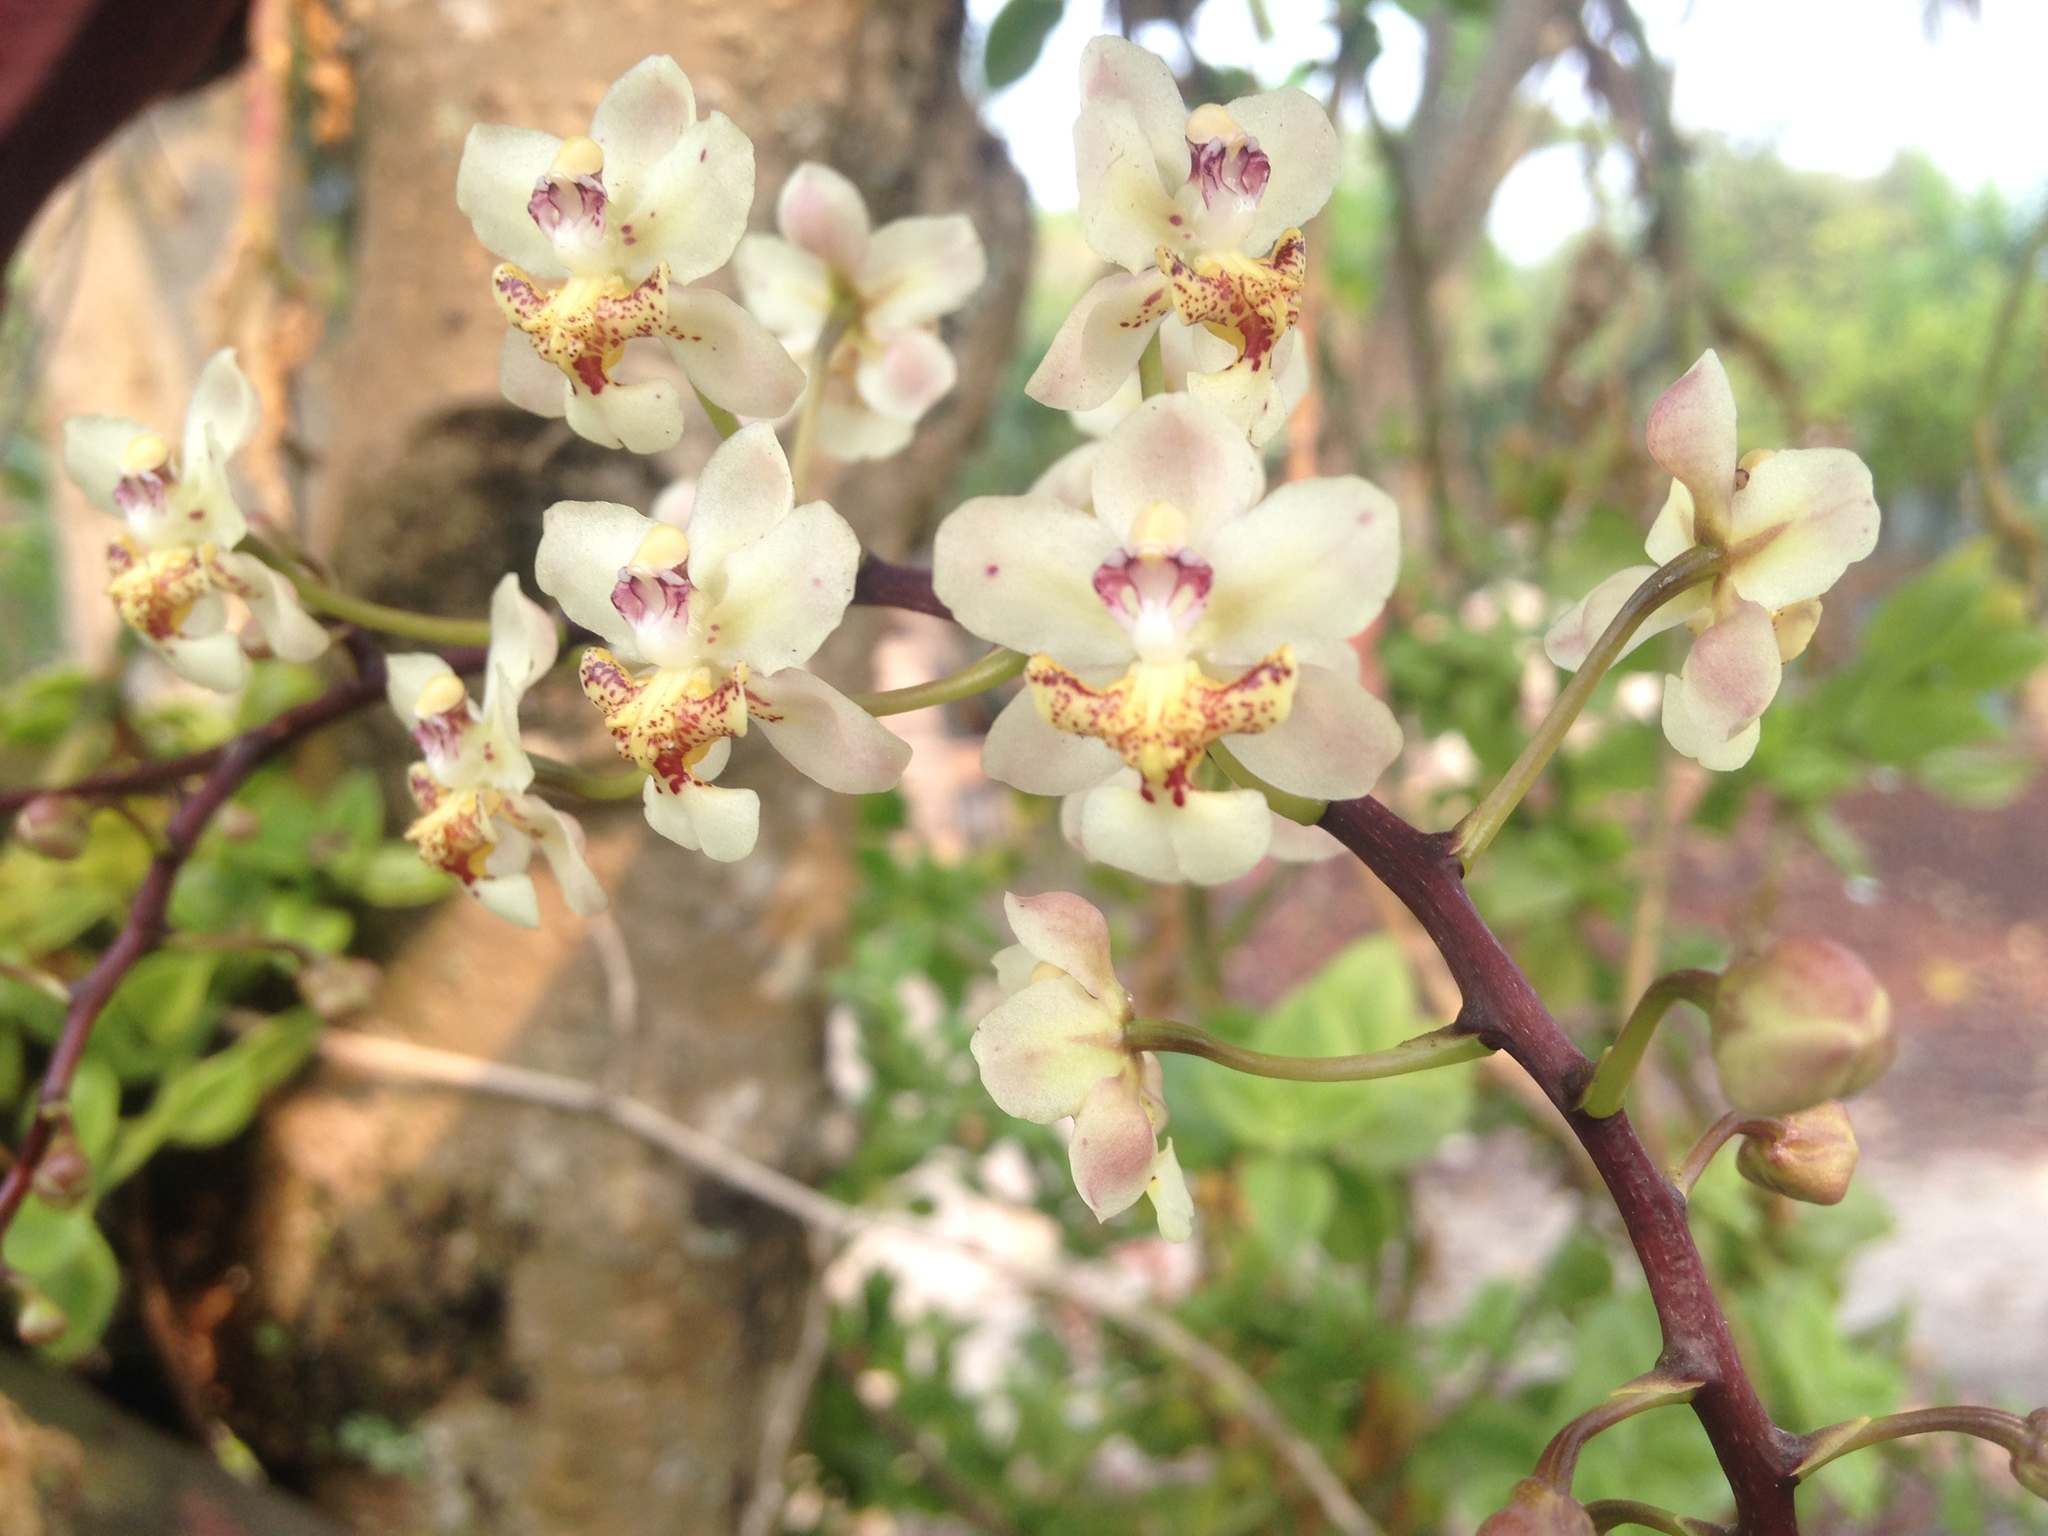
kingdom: Plantae
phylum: Tracheophyta
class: Liliopsida
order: Asparagales
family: Orchidaceae
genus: Trichocentrum
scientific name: Trichocentrum stramineum
